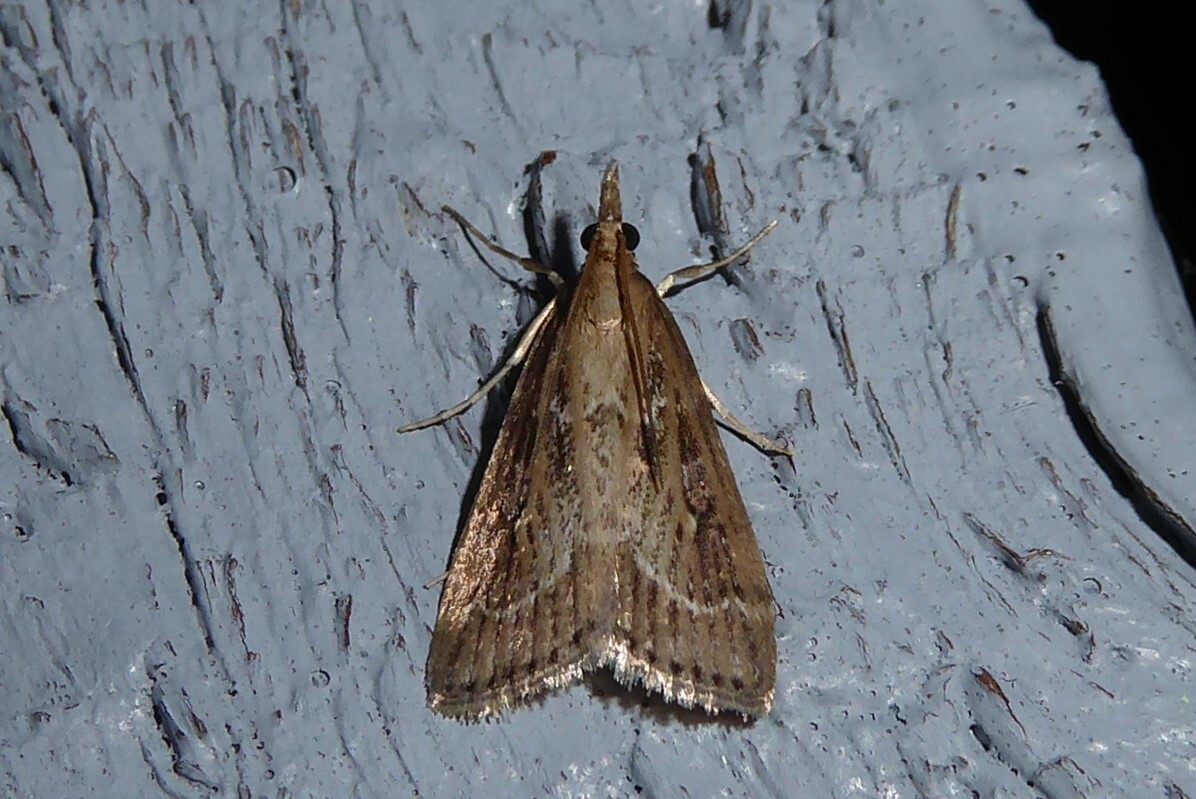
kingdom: Animalia
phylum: Arthropoda
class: Insecta
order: Lepidoptera
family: Crambidae
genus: Eudonia
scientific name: Eudonia octophora
